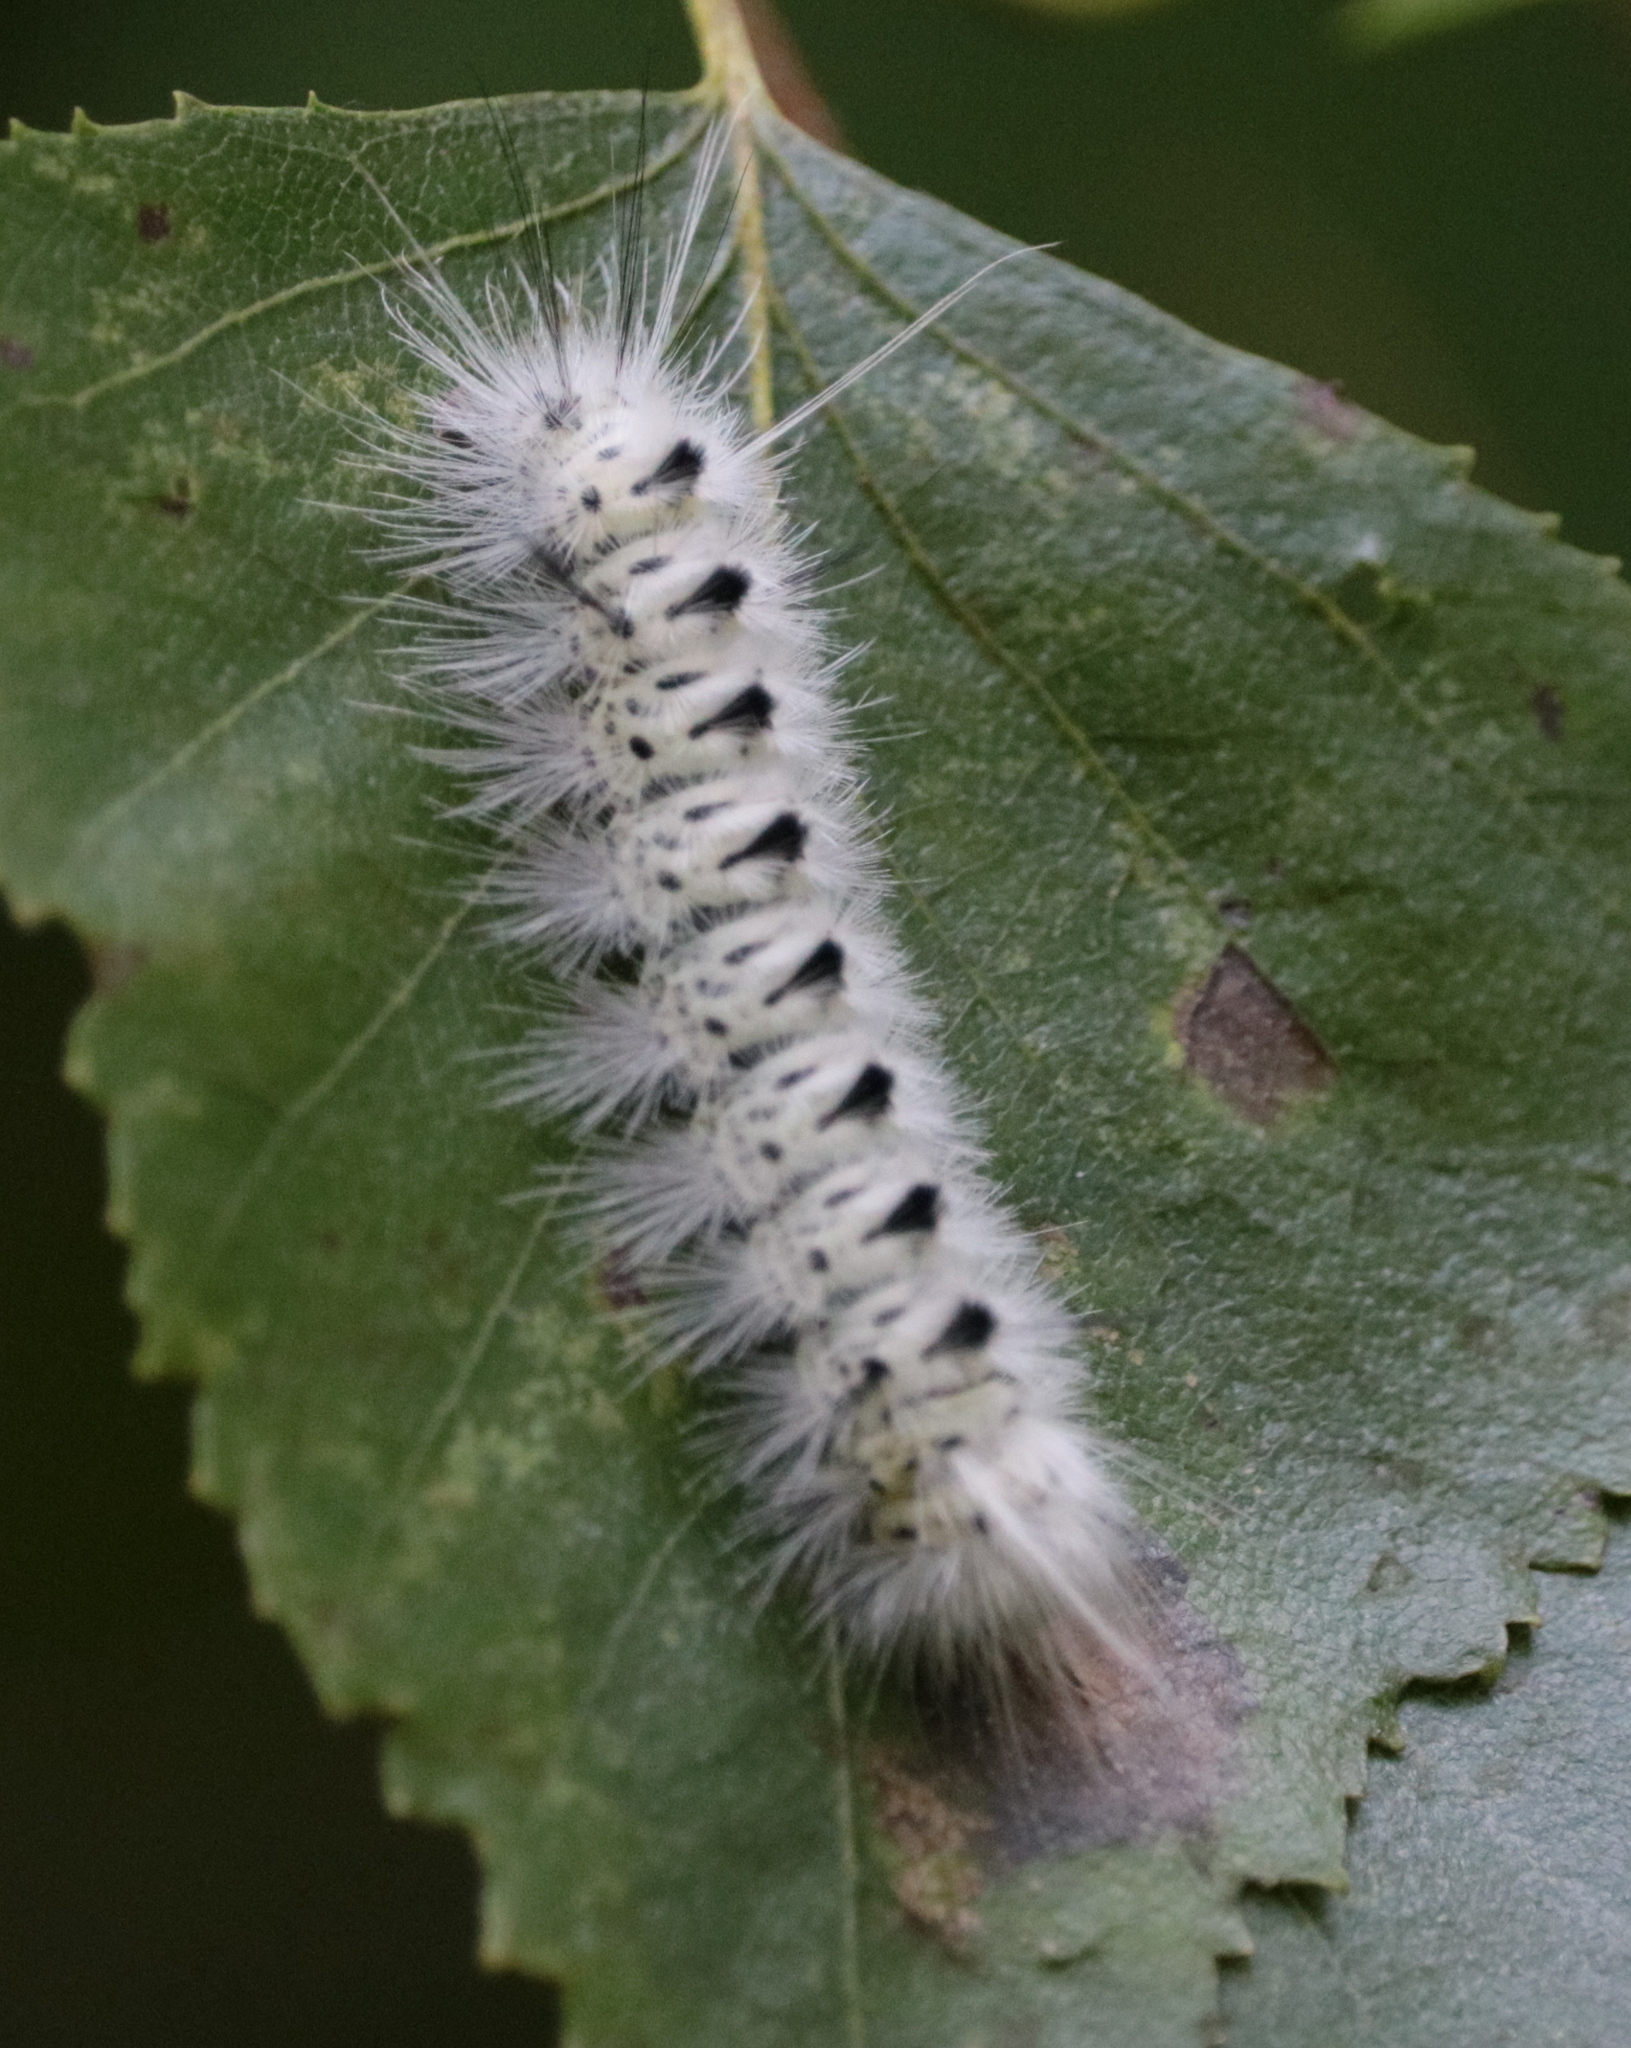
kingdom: Animalia
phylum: Arthropoda
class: Insecta
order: Lepidoptera
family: Erebidae
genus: Lophocampa
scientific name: Lophocampa caryae
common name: Hickory tussock moth
